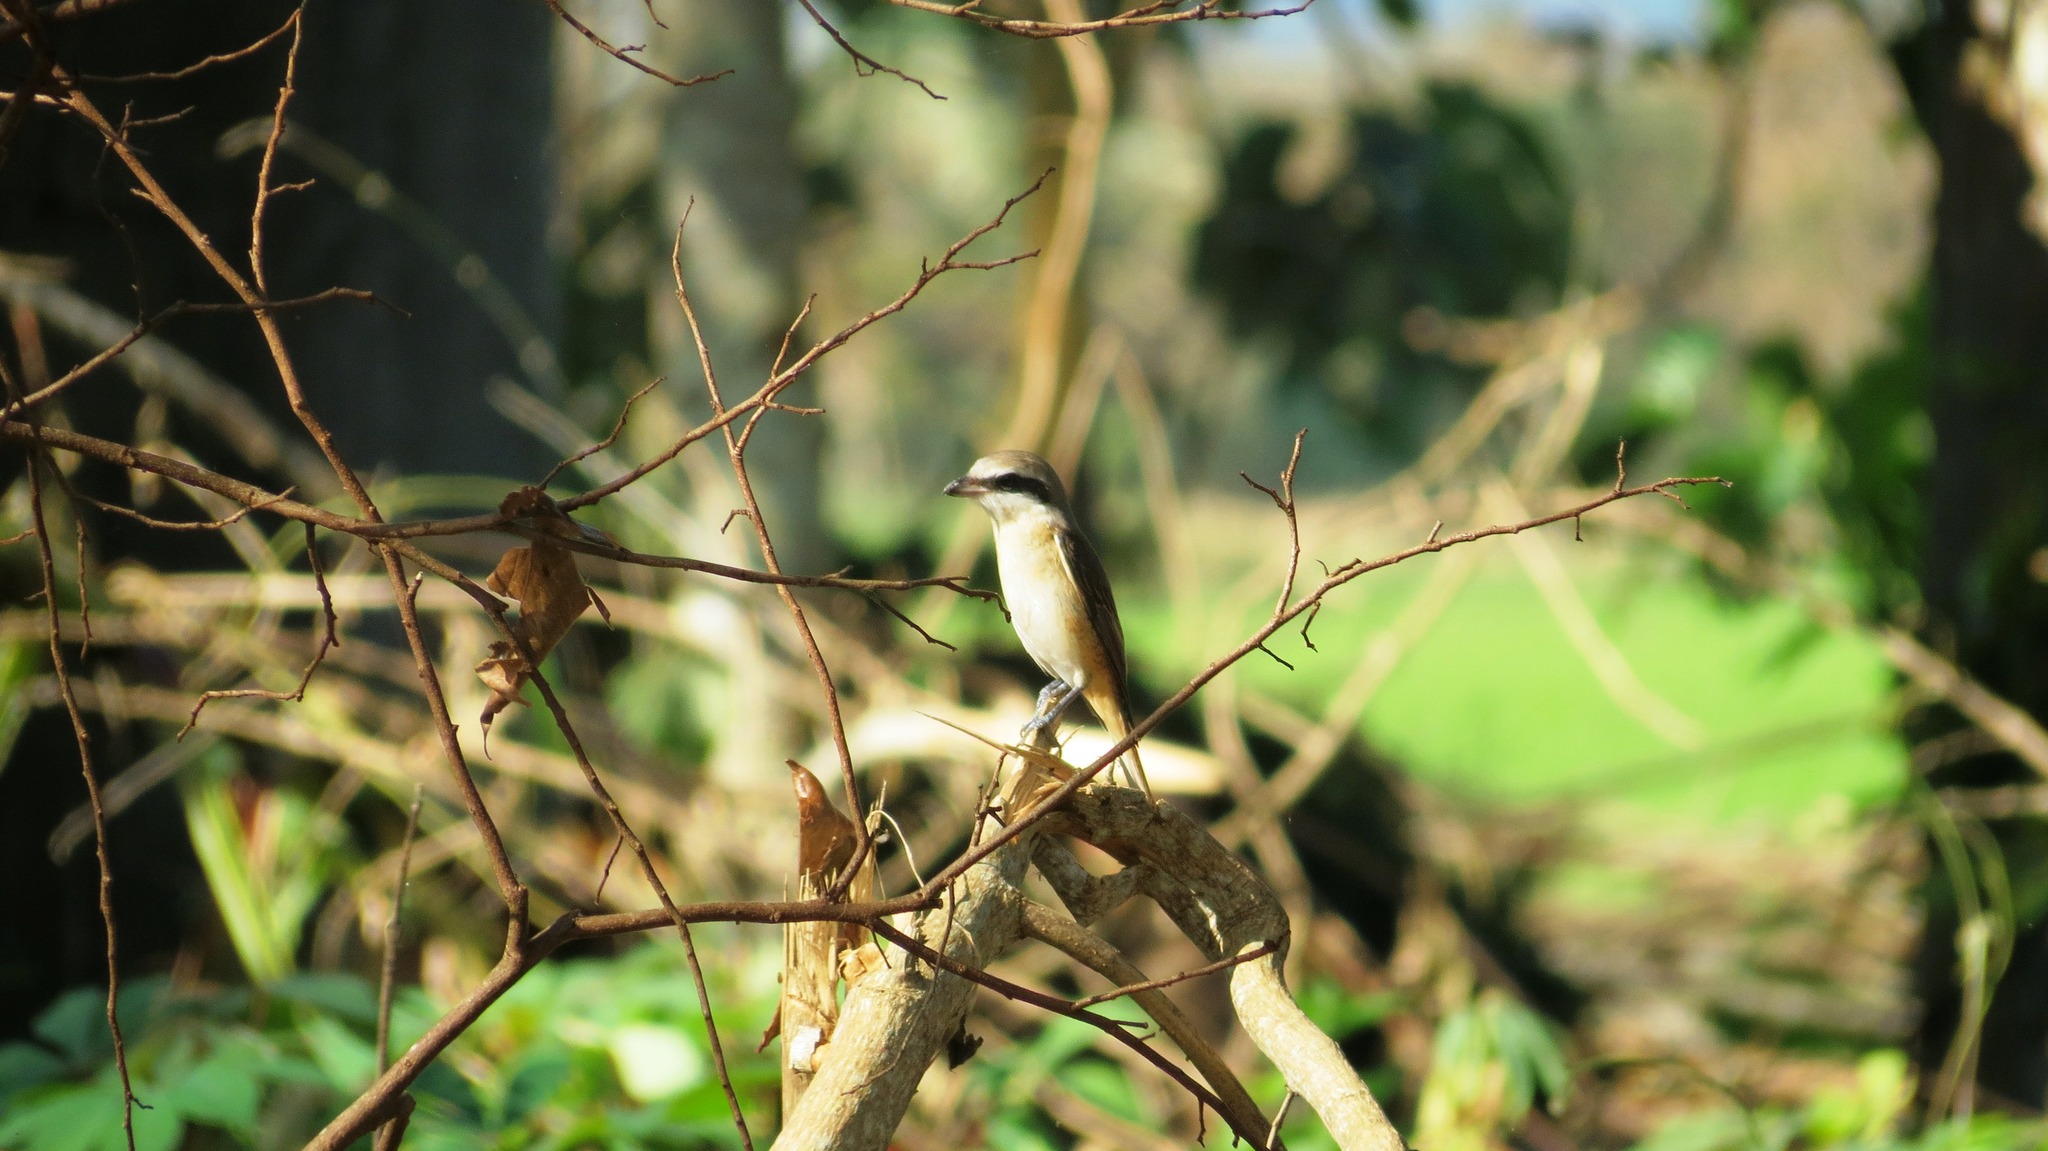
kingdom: Animalia
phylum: Chordata
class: Aves
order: Passeriformes
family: Laniidae
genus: Lanius
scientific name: Lanius cristatus
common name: Brown shrike
